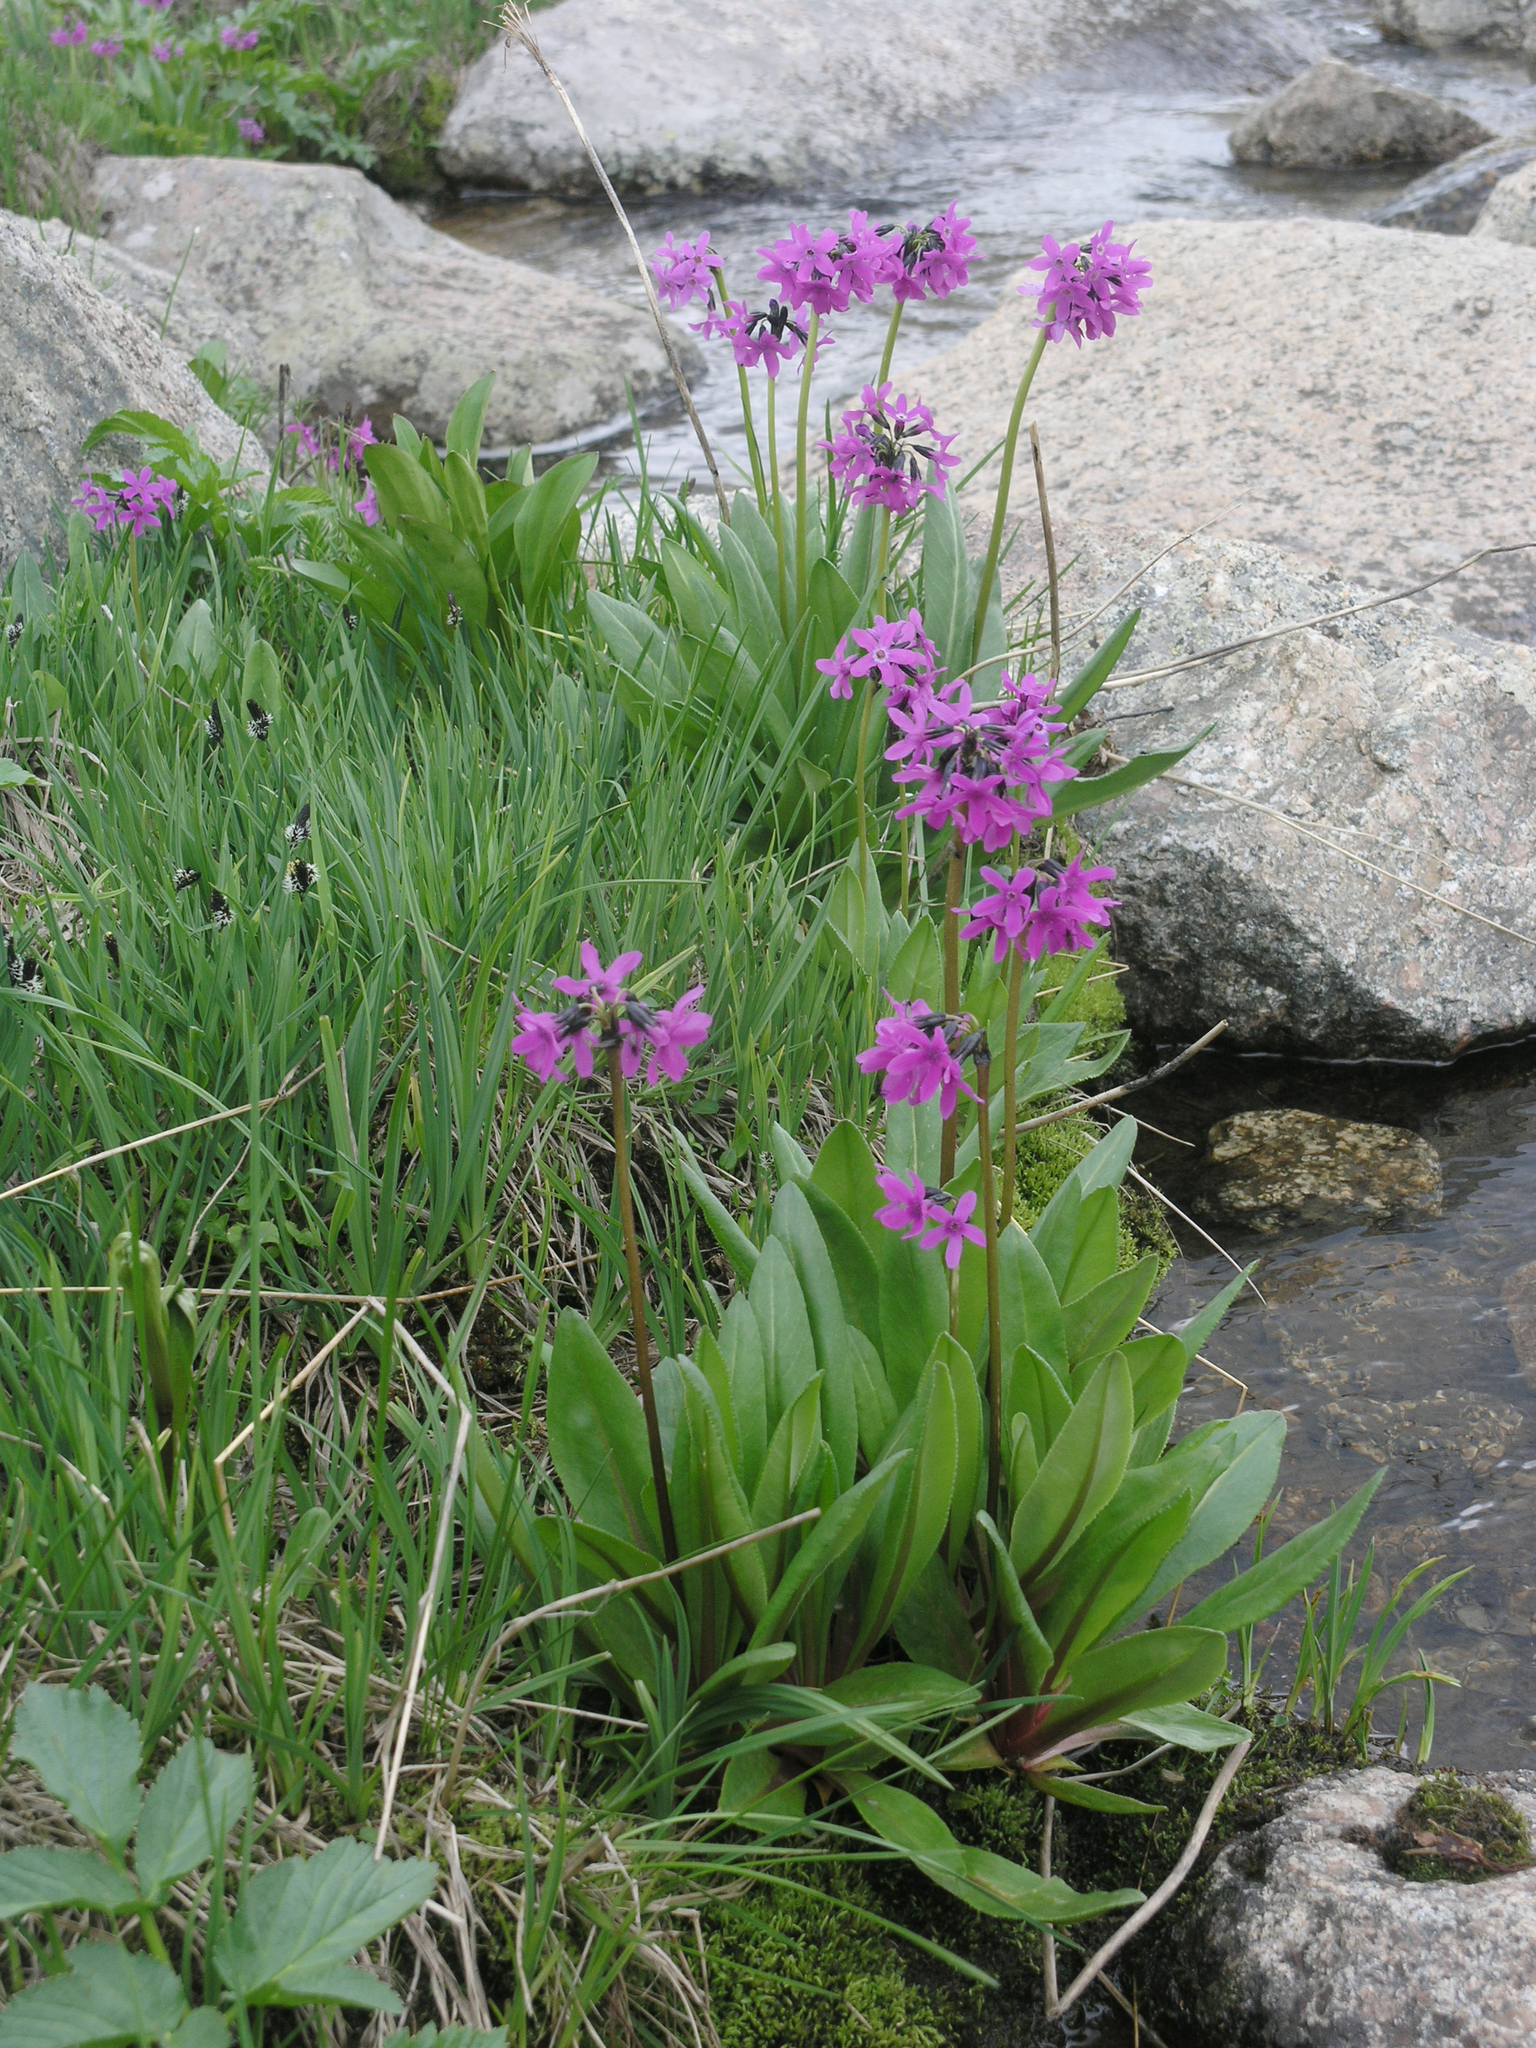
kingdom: Plantae
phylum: Tracheophyta
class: Magnoliopsida
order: Ericales
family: Primulaceae
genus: Primula
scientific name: Primula nivalis
